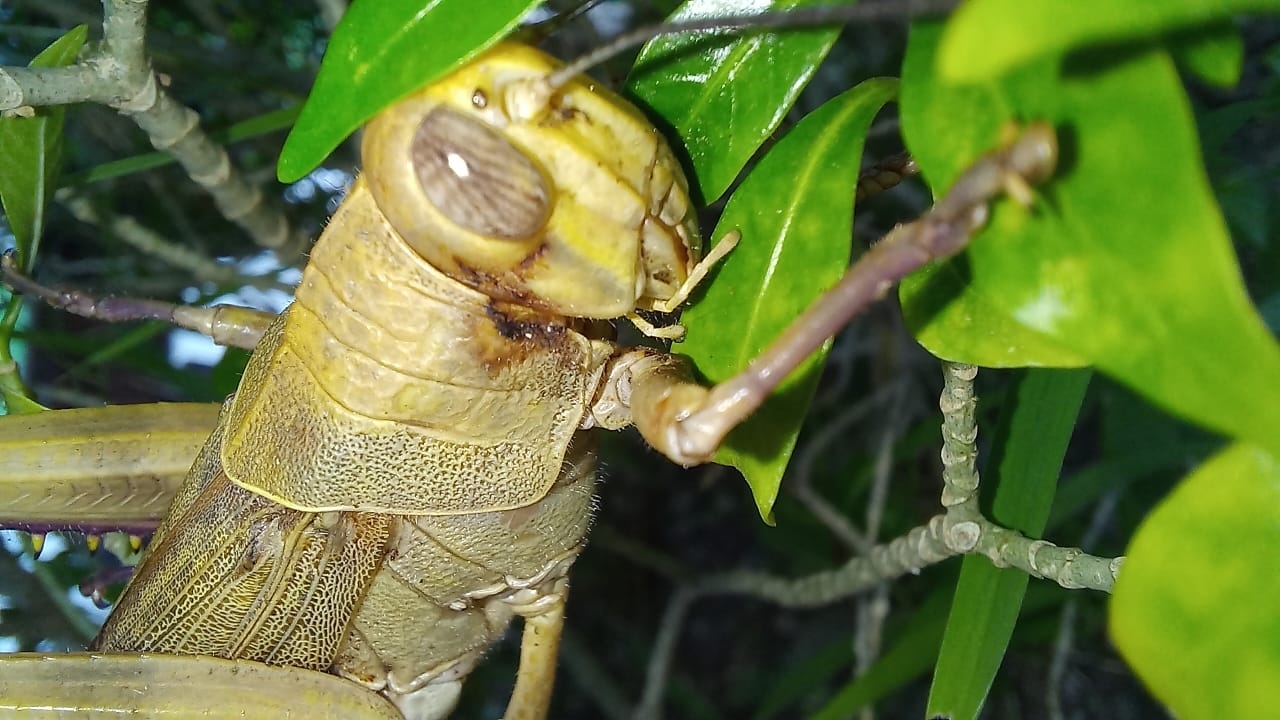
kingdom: Animalia
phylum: Arthropoda
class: Insecta
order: Orthoptera
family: Acrididae
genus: Valanga
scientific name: Valanga nigricornis
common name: Javanese bird grasshopper
